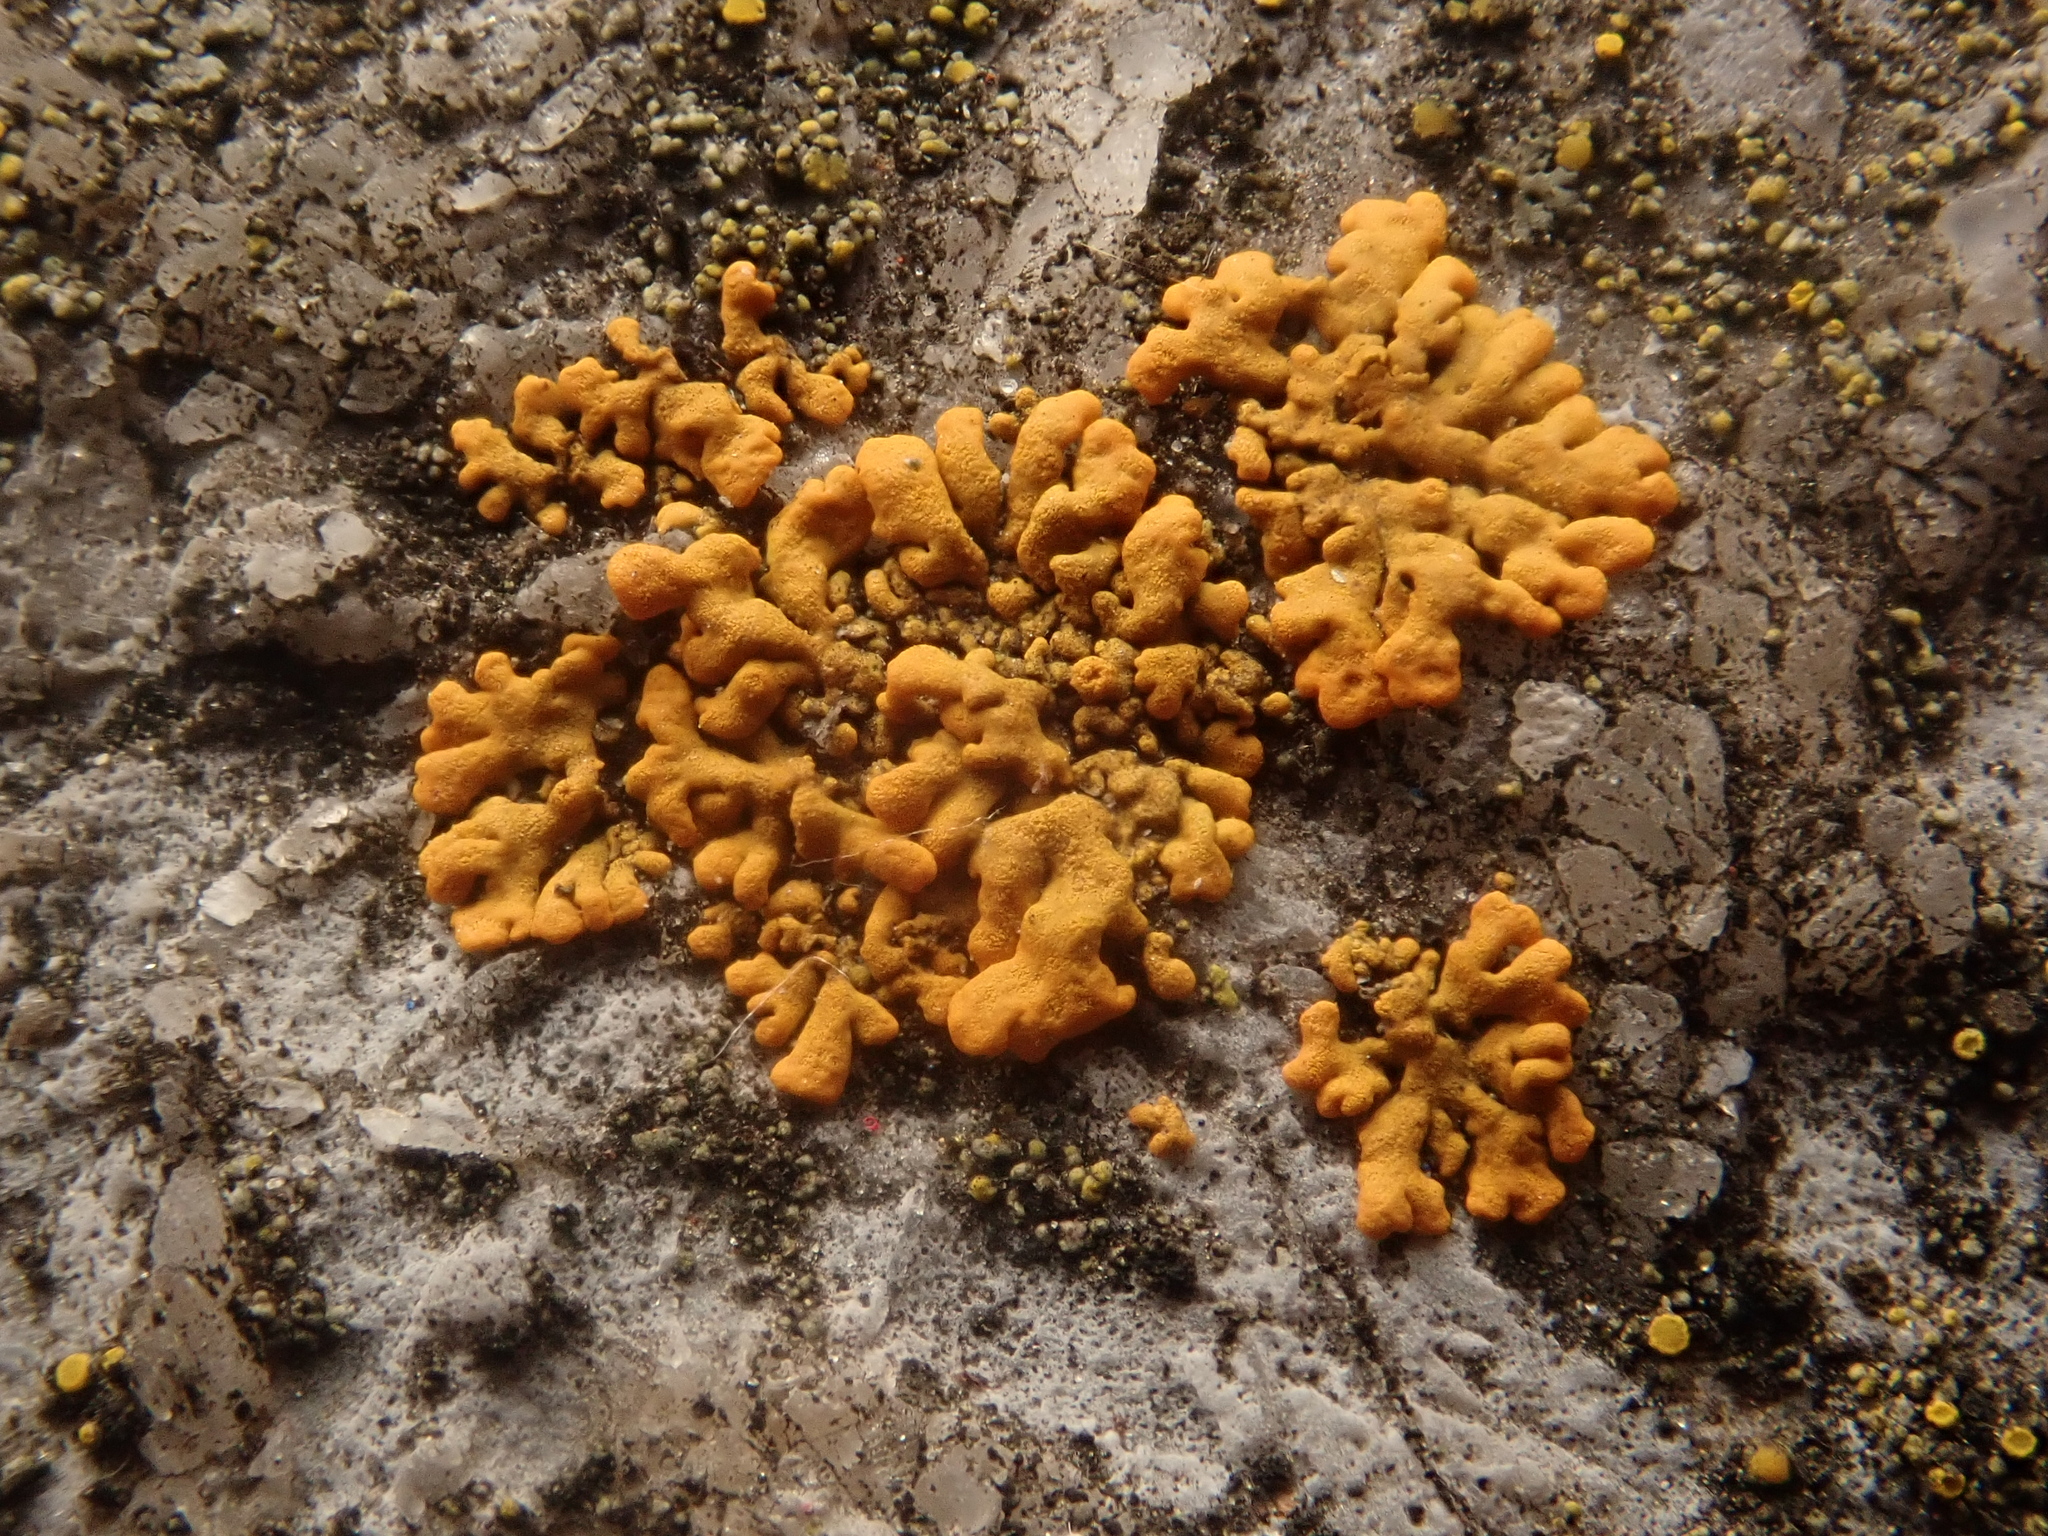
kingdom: Fungi
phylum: Ascomycota
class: Lecanoromycetes
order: Teloschistales
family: Teloschistaceae
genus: Xanthoria
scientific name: Xanthoria elegans
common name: Elegant sunburst lichen
